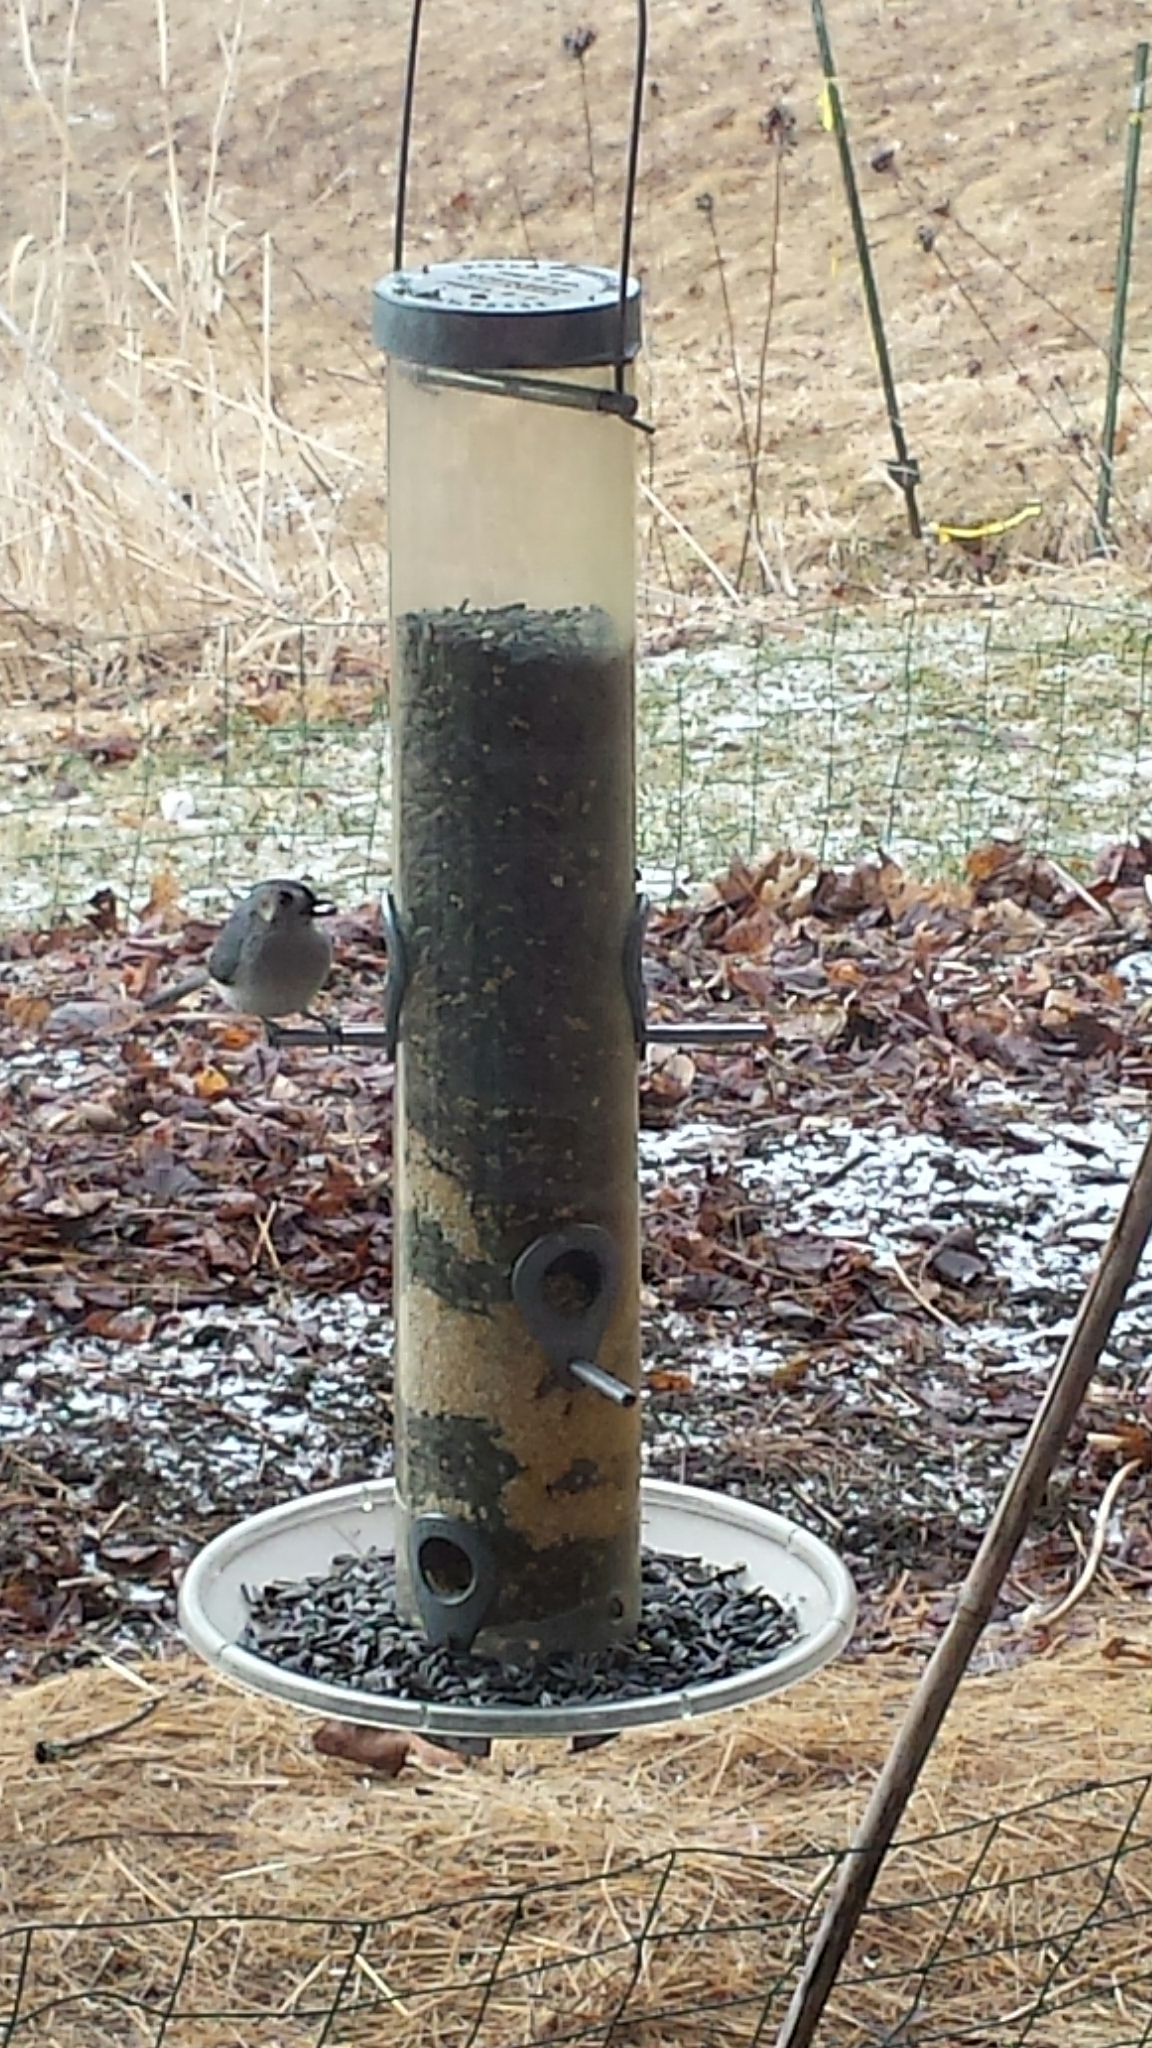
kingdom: Animalia
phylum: Chordata
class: Aves
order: Passeriformes
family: Paridae
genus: Baeolophus
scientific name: Baeolophus bicolor
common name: Tufted titmouse
